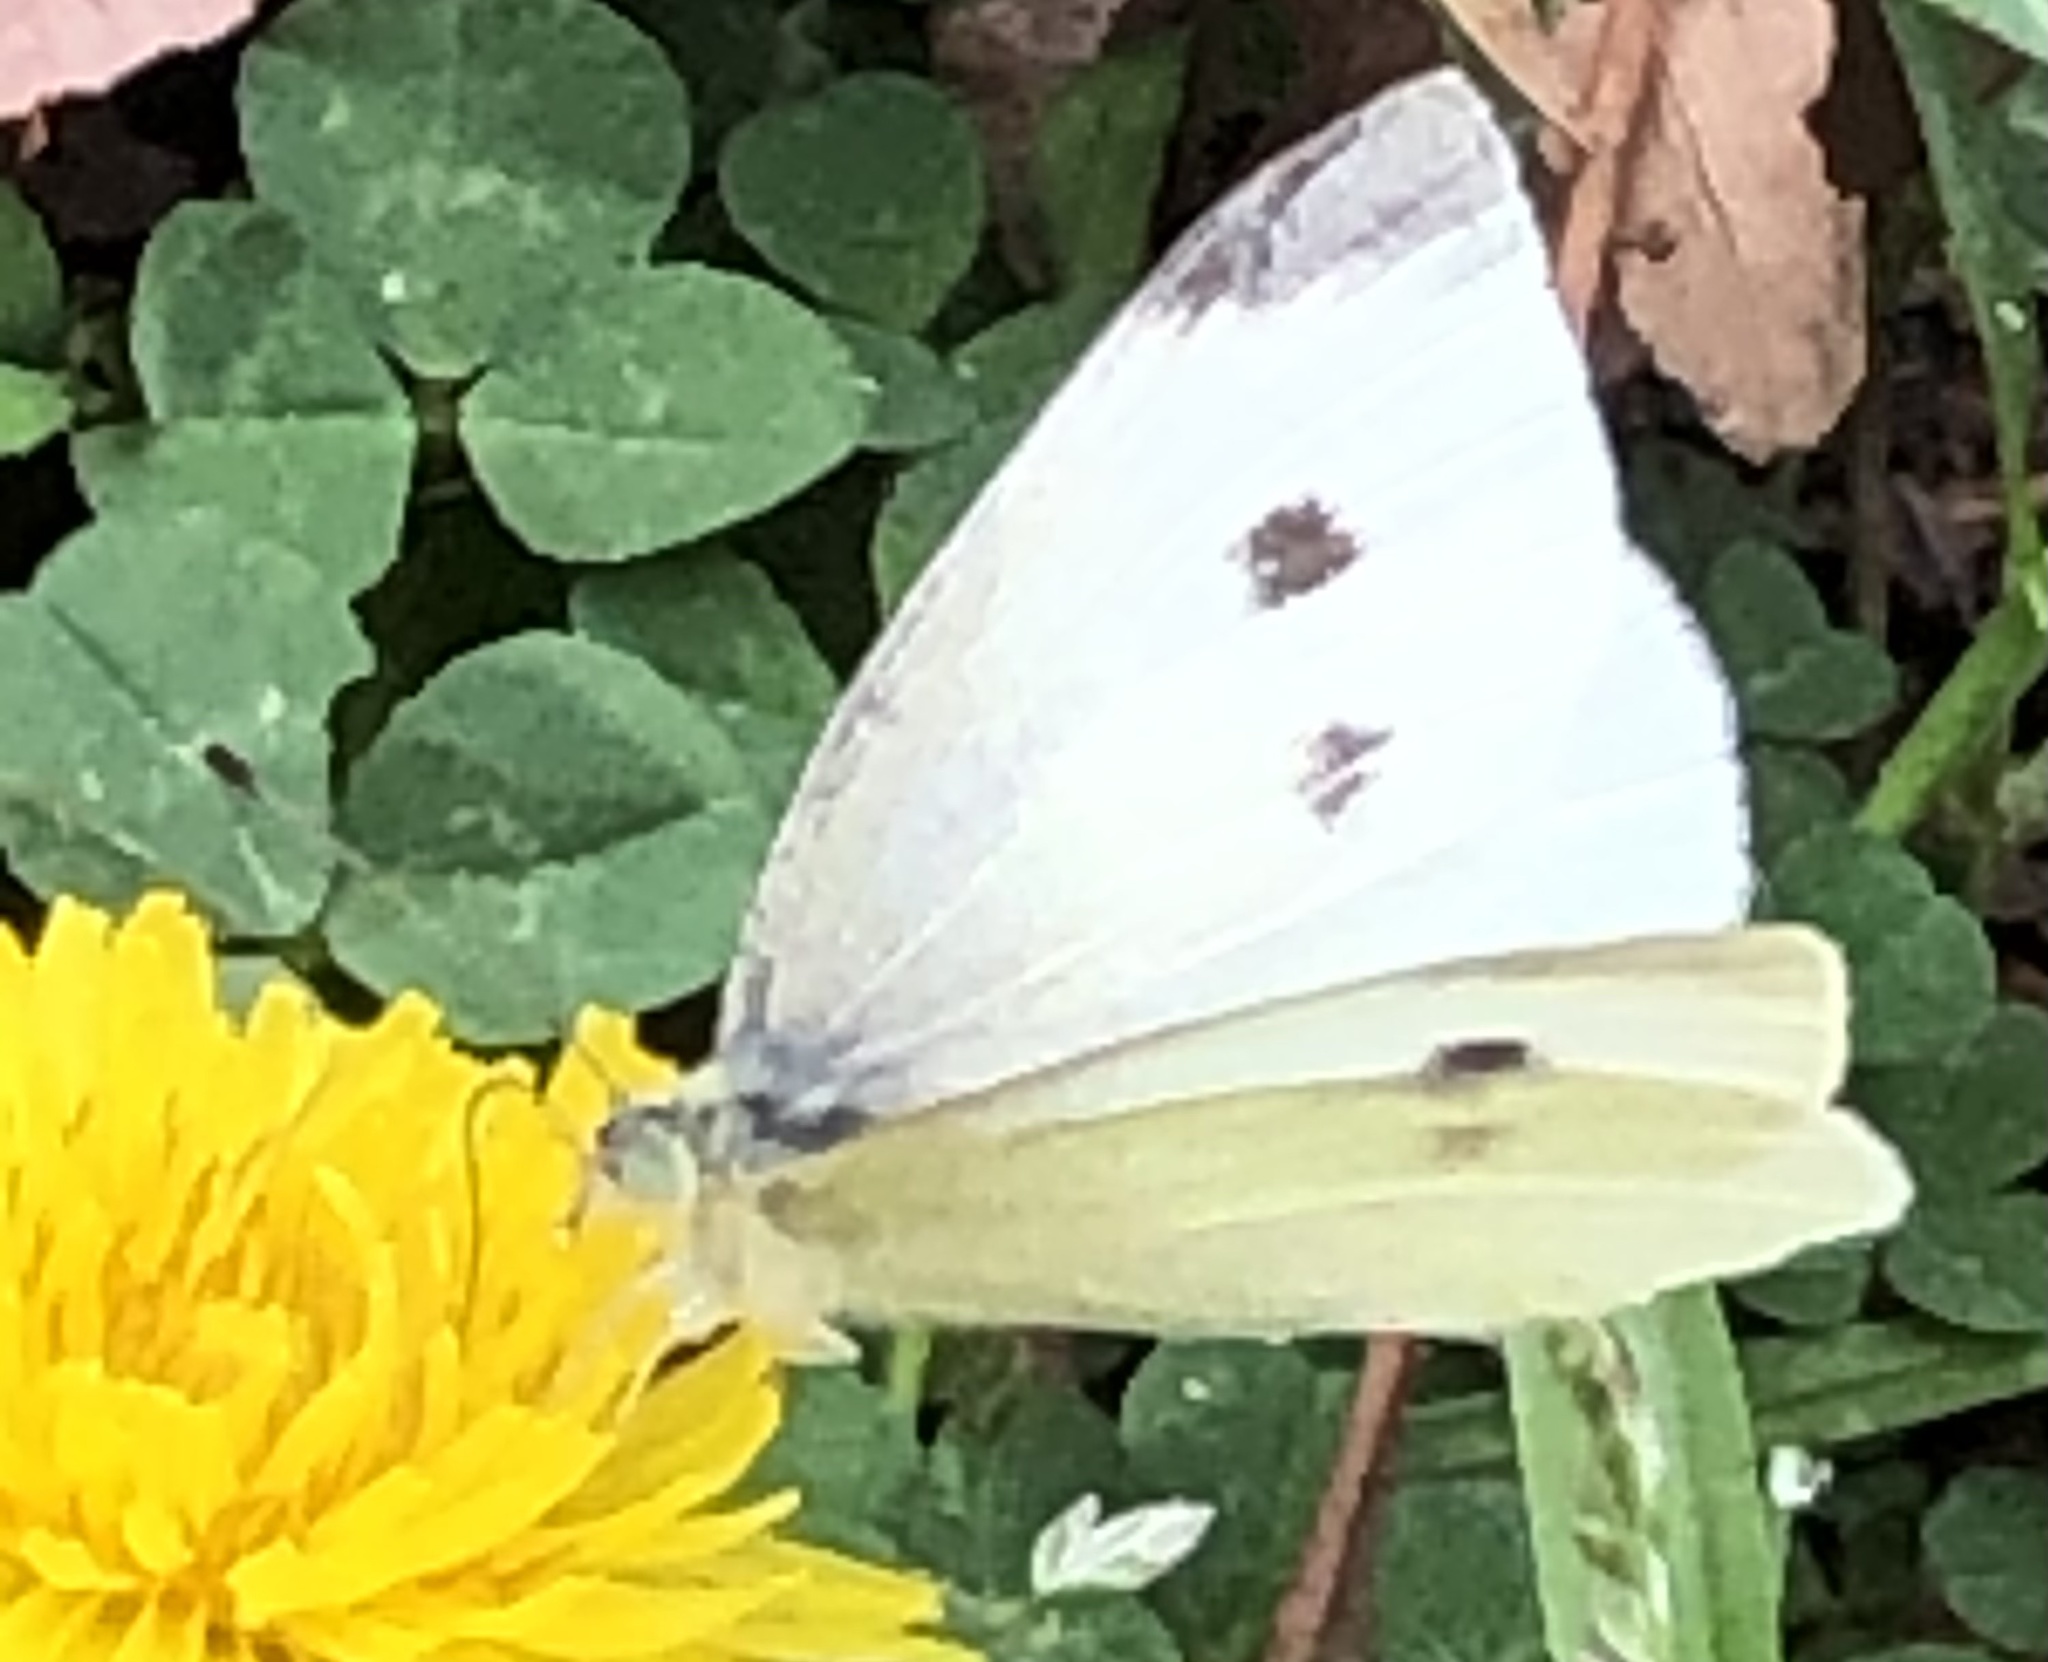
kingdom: Animalia
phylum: Arthropoda
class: Insecta
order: Lepidoptera
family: Pieridae
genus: Pieris
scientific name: Pieris rapae
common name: Small white
